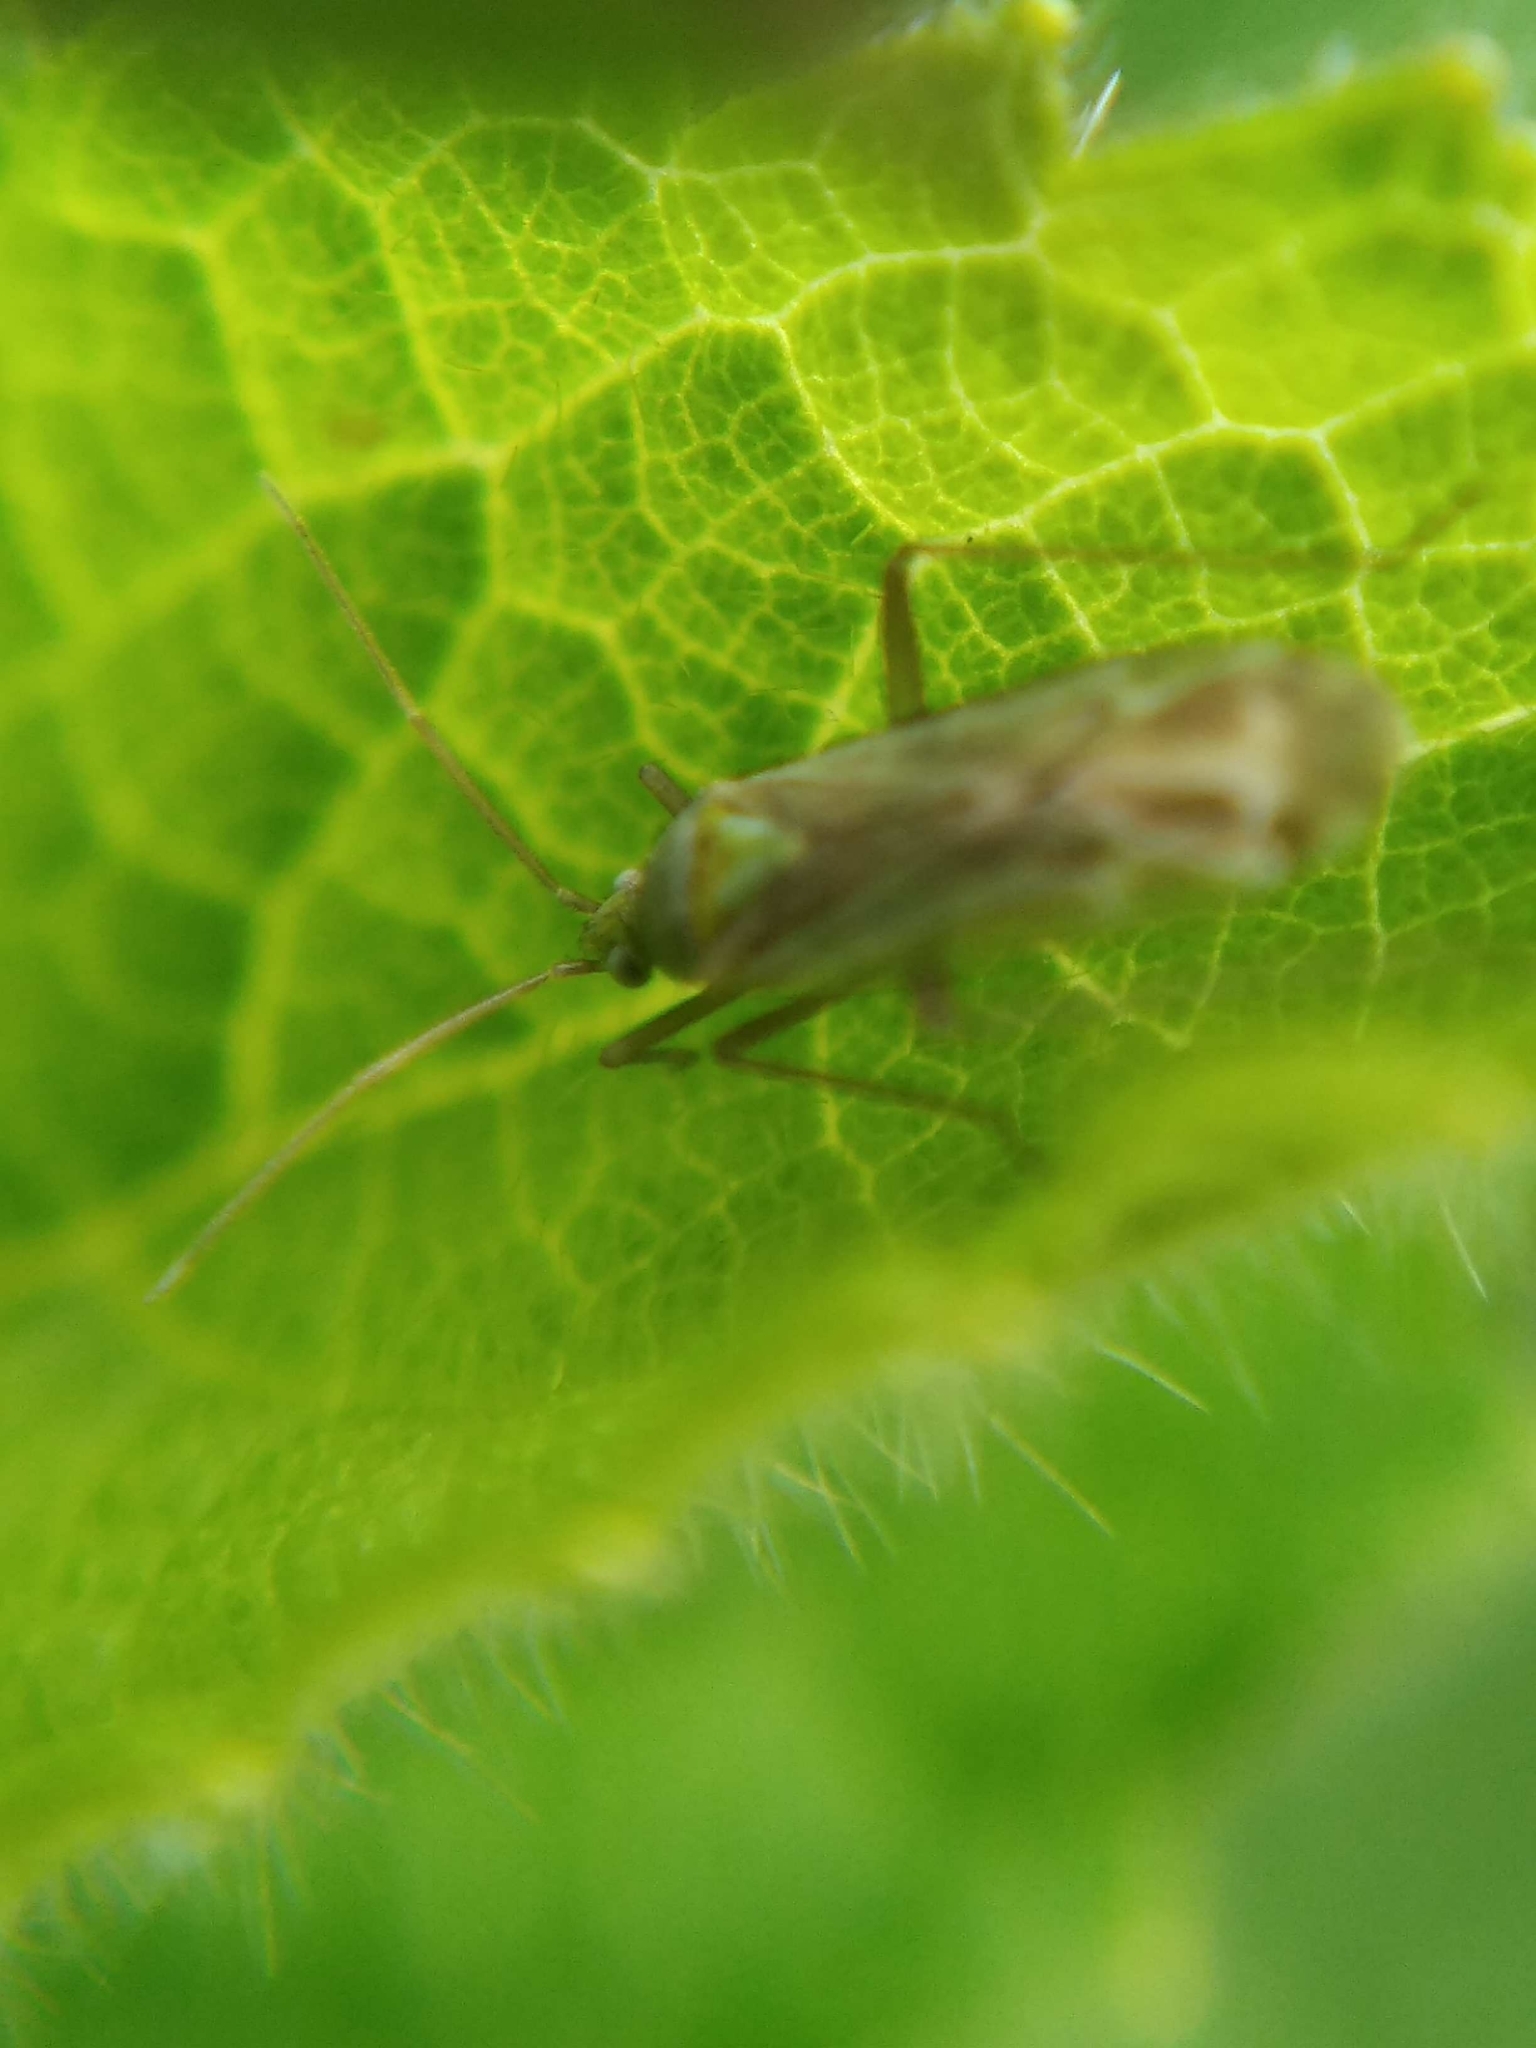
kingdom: Animalia
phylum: Arthropoda
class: Insecta
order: Hemiptera
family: Miridae
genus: Macrotylus
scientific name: Macrotylus solitarius
